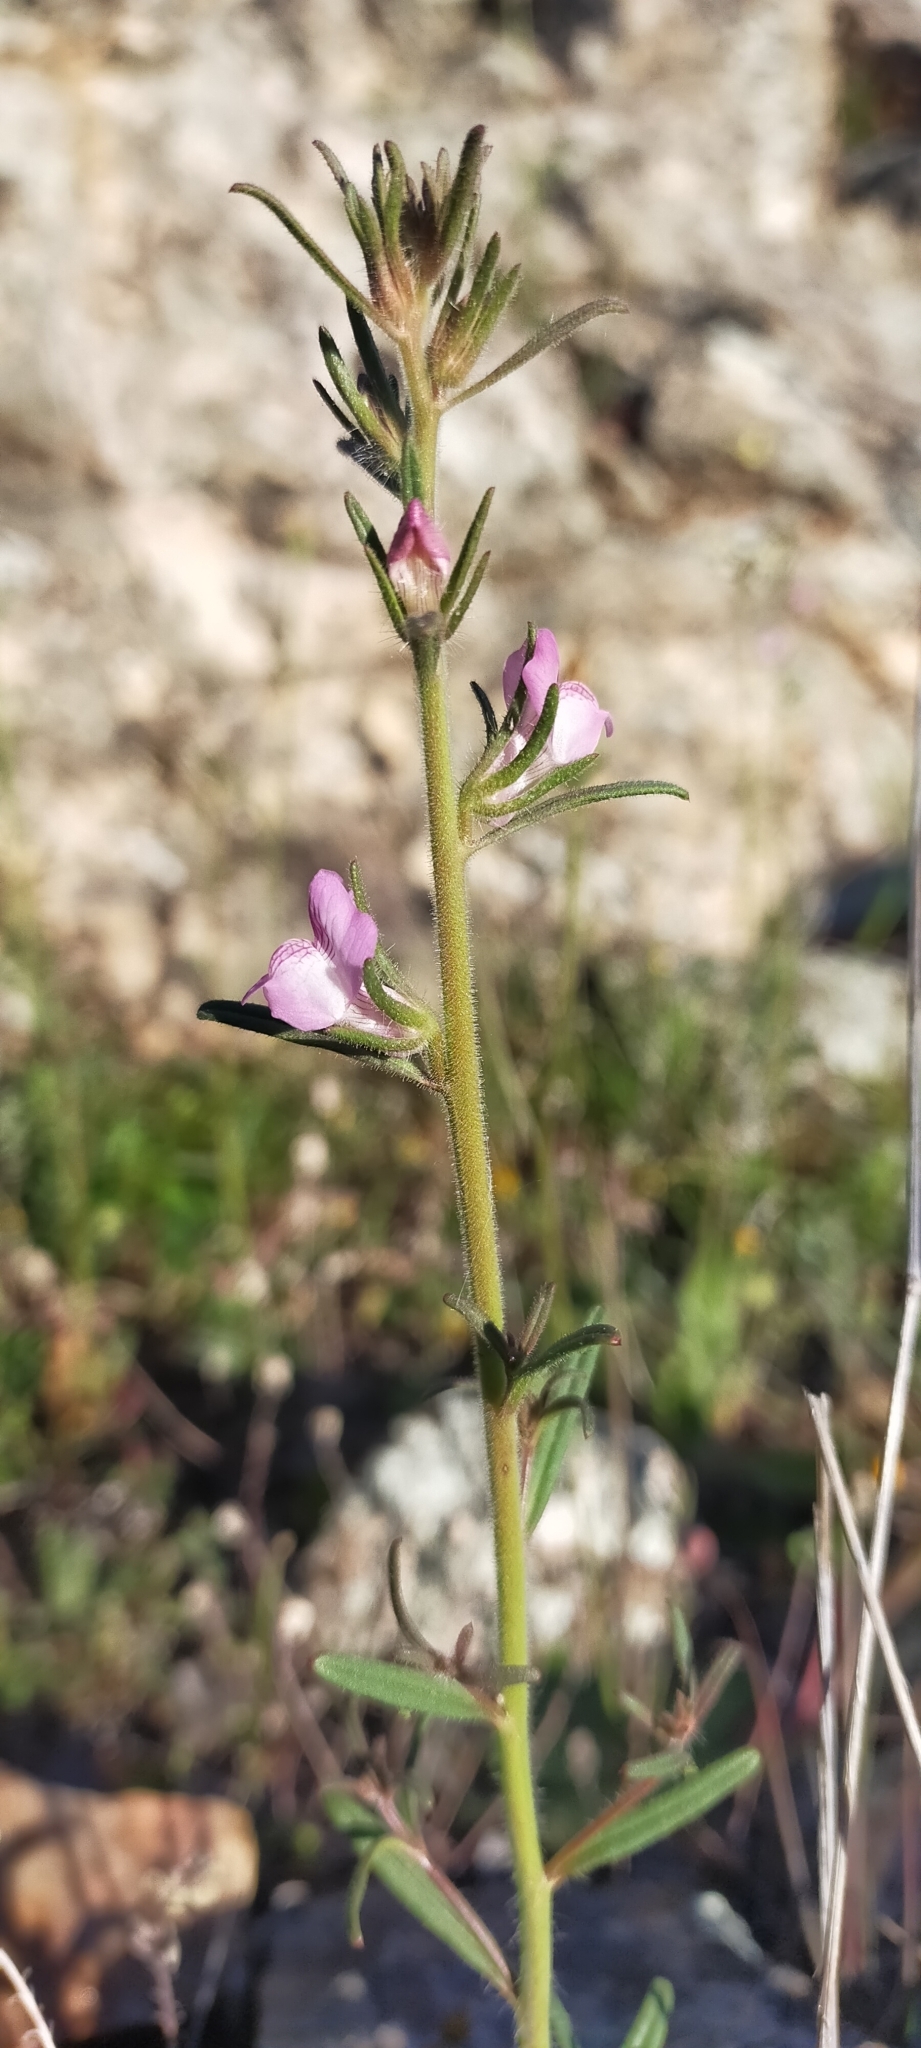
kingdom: Plantae
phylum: Tracheophyta
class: Magnoliopsida
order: Lamiales
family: Plantaginaceae
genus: Misopates
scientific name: Misopates orontium
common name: Weasel's-snout
